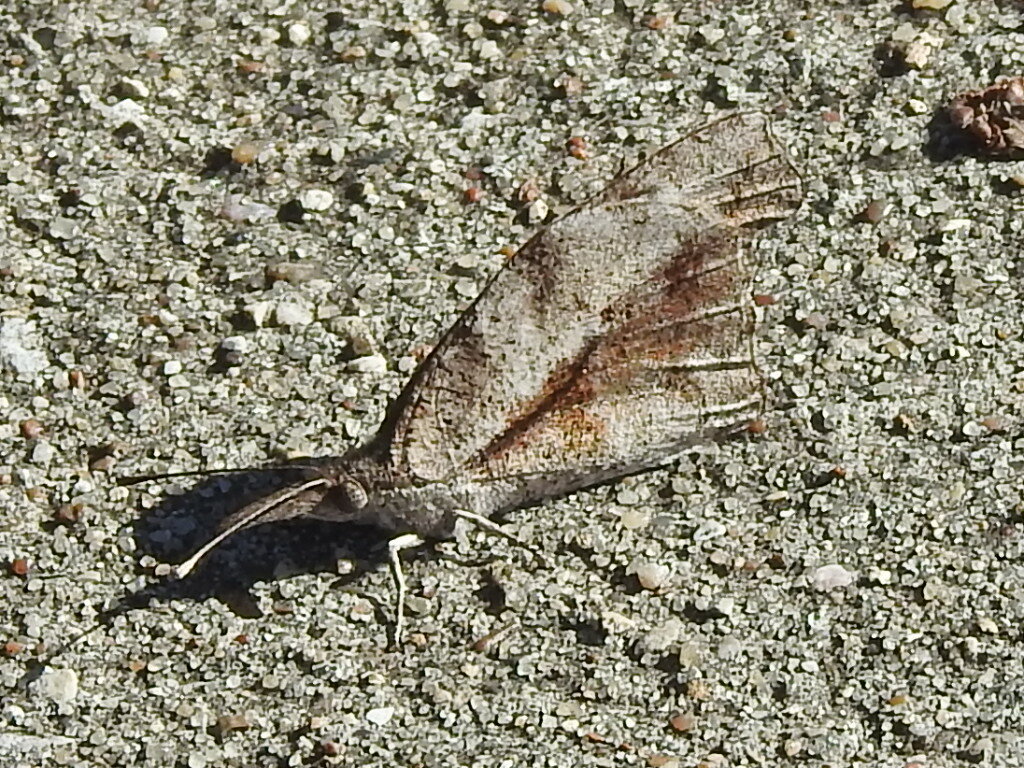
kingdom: Animalia
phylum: Arthropoda
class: Insecta
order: Lepidoptera
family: Nymphalidae
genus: Libytheana
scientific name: Libytheana carinenta
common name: American snout
